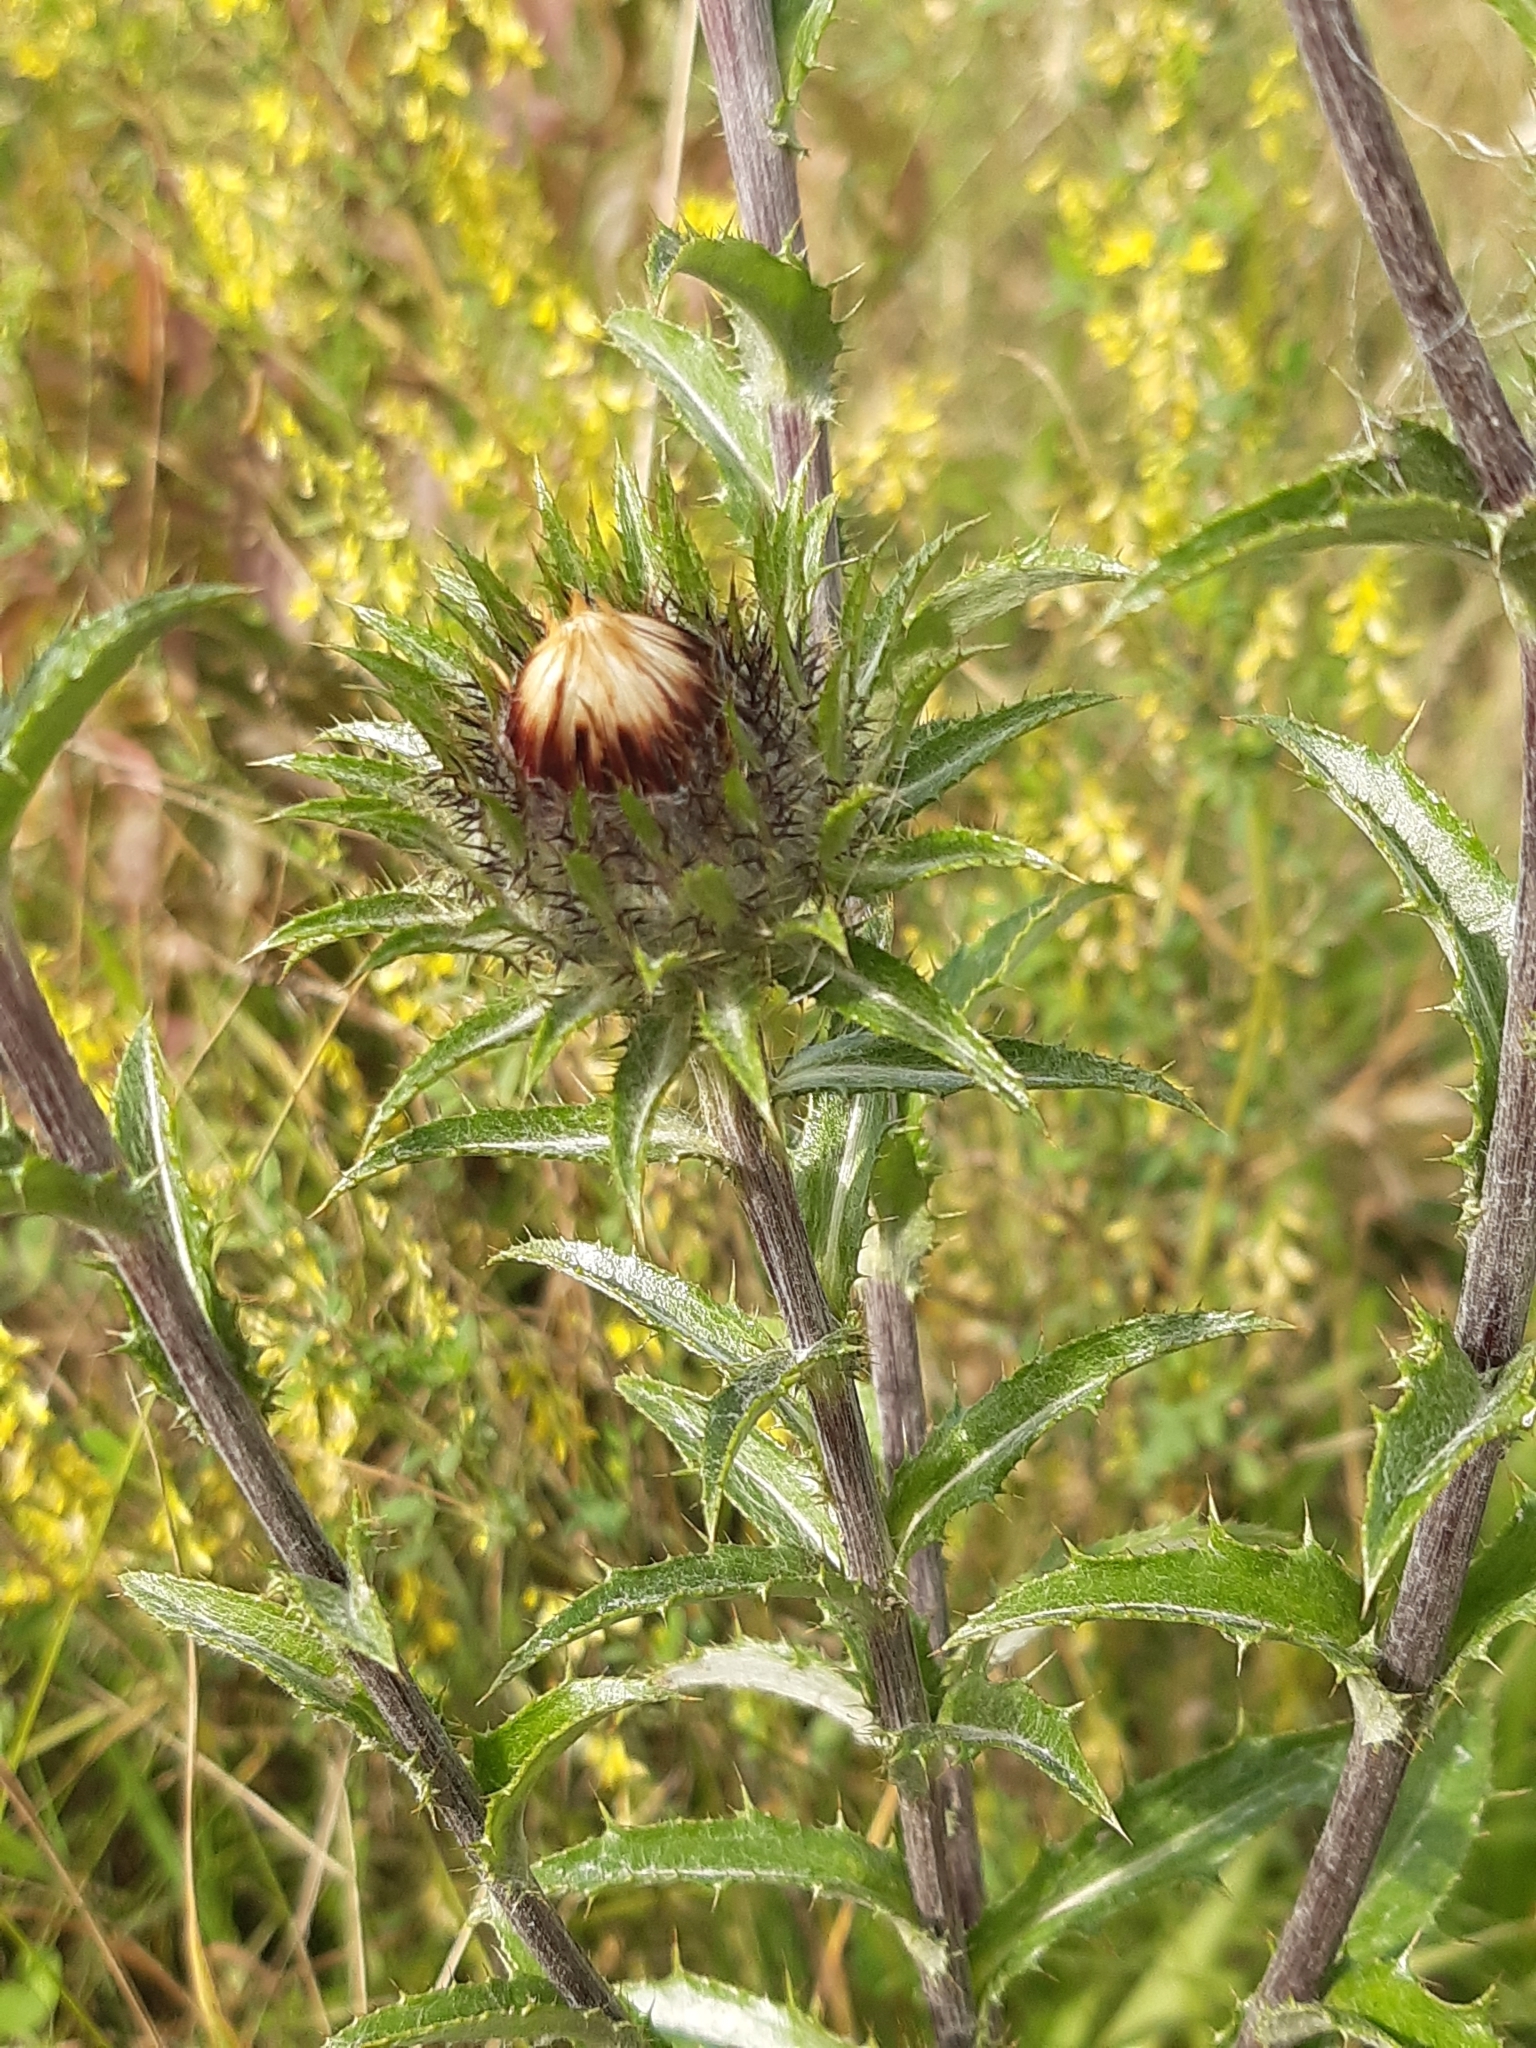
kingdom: Plantae
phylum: Tracheophyta
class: Magnoliopsida
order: Asterales
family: Asteraceae
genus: Carlina
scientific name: Carlina vulgaris
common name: Carline thistle
